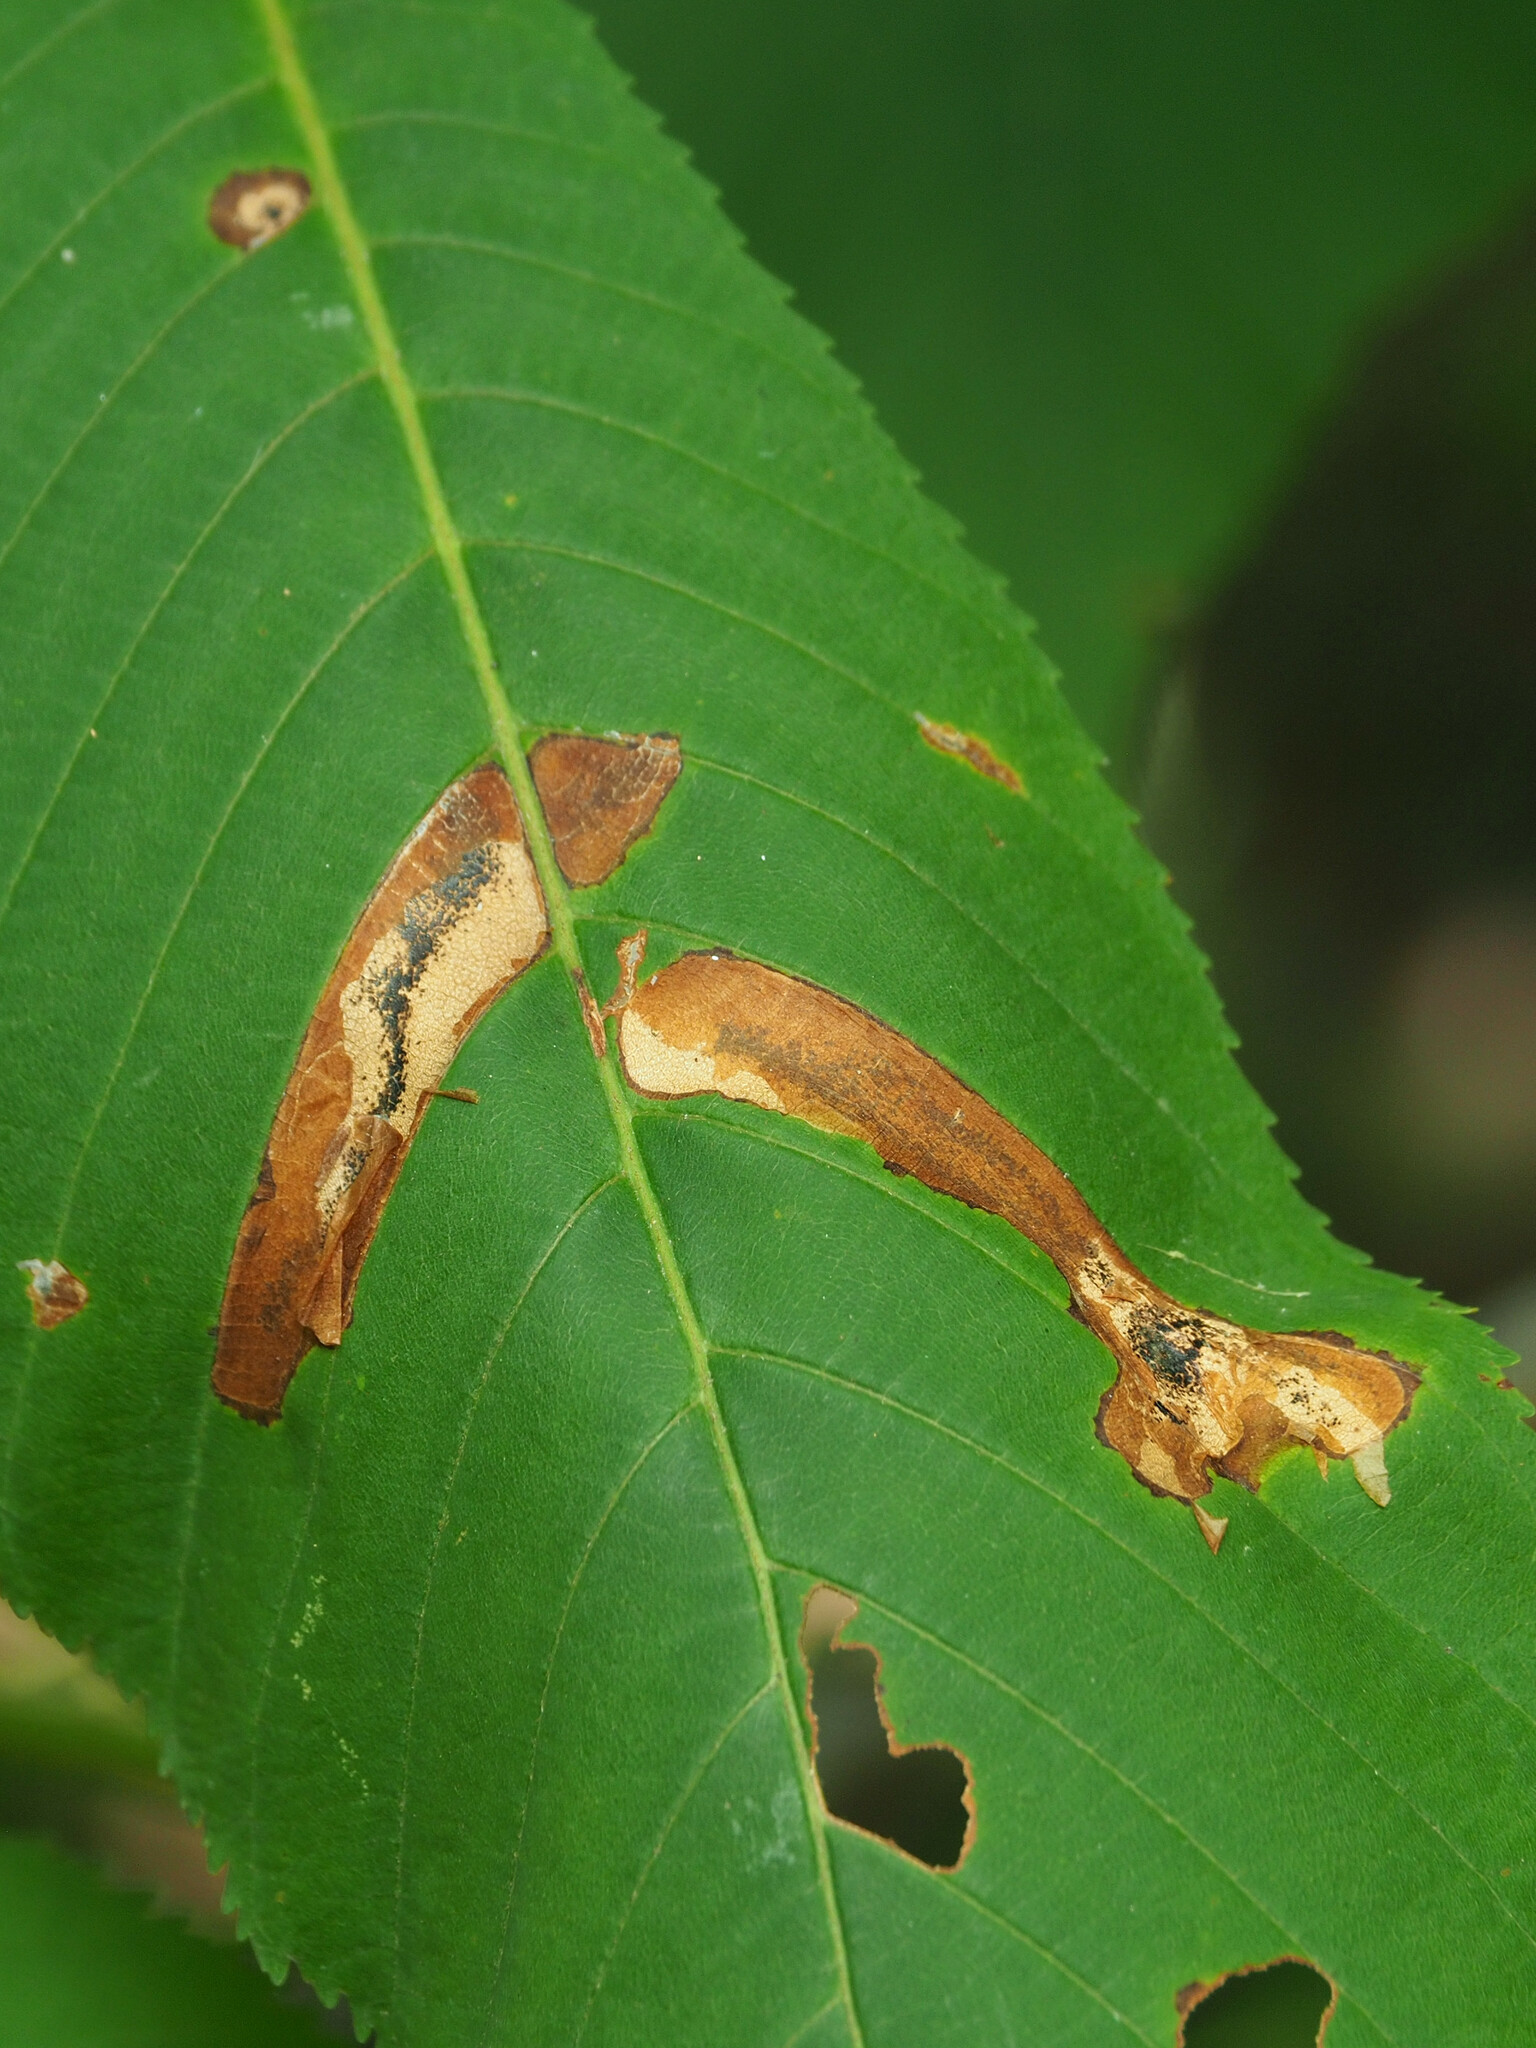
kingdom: Animalia
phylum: Arthropoda
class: Insecta
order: Lepidoptera
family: Gracillariidae
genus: Cameraria
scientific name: Cameraria aesculisella
